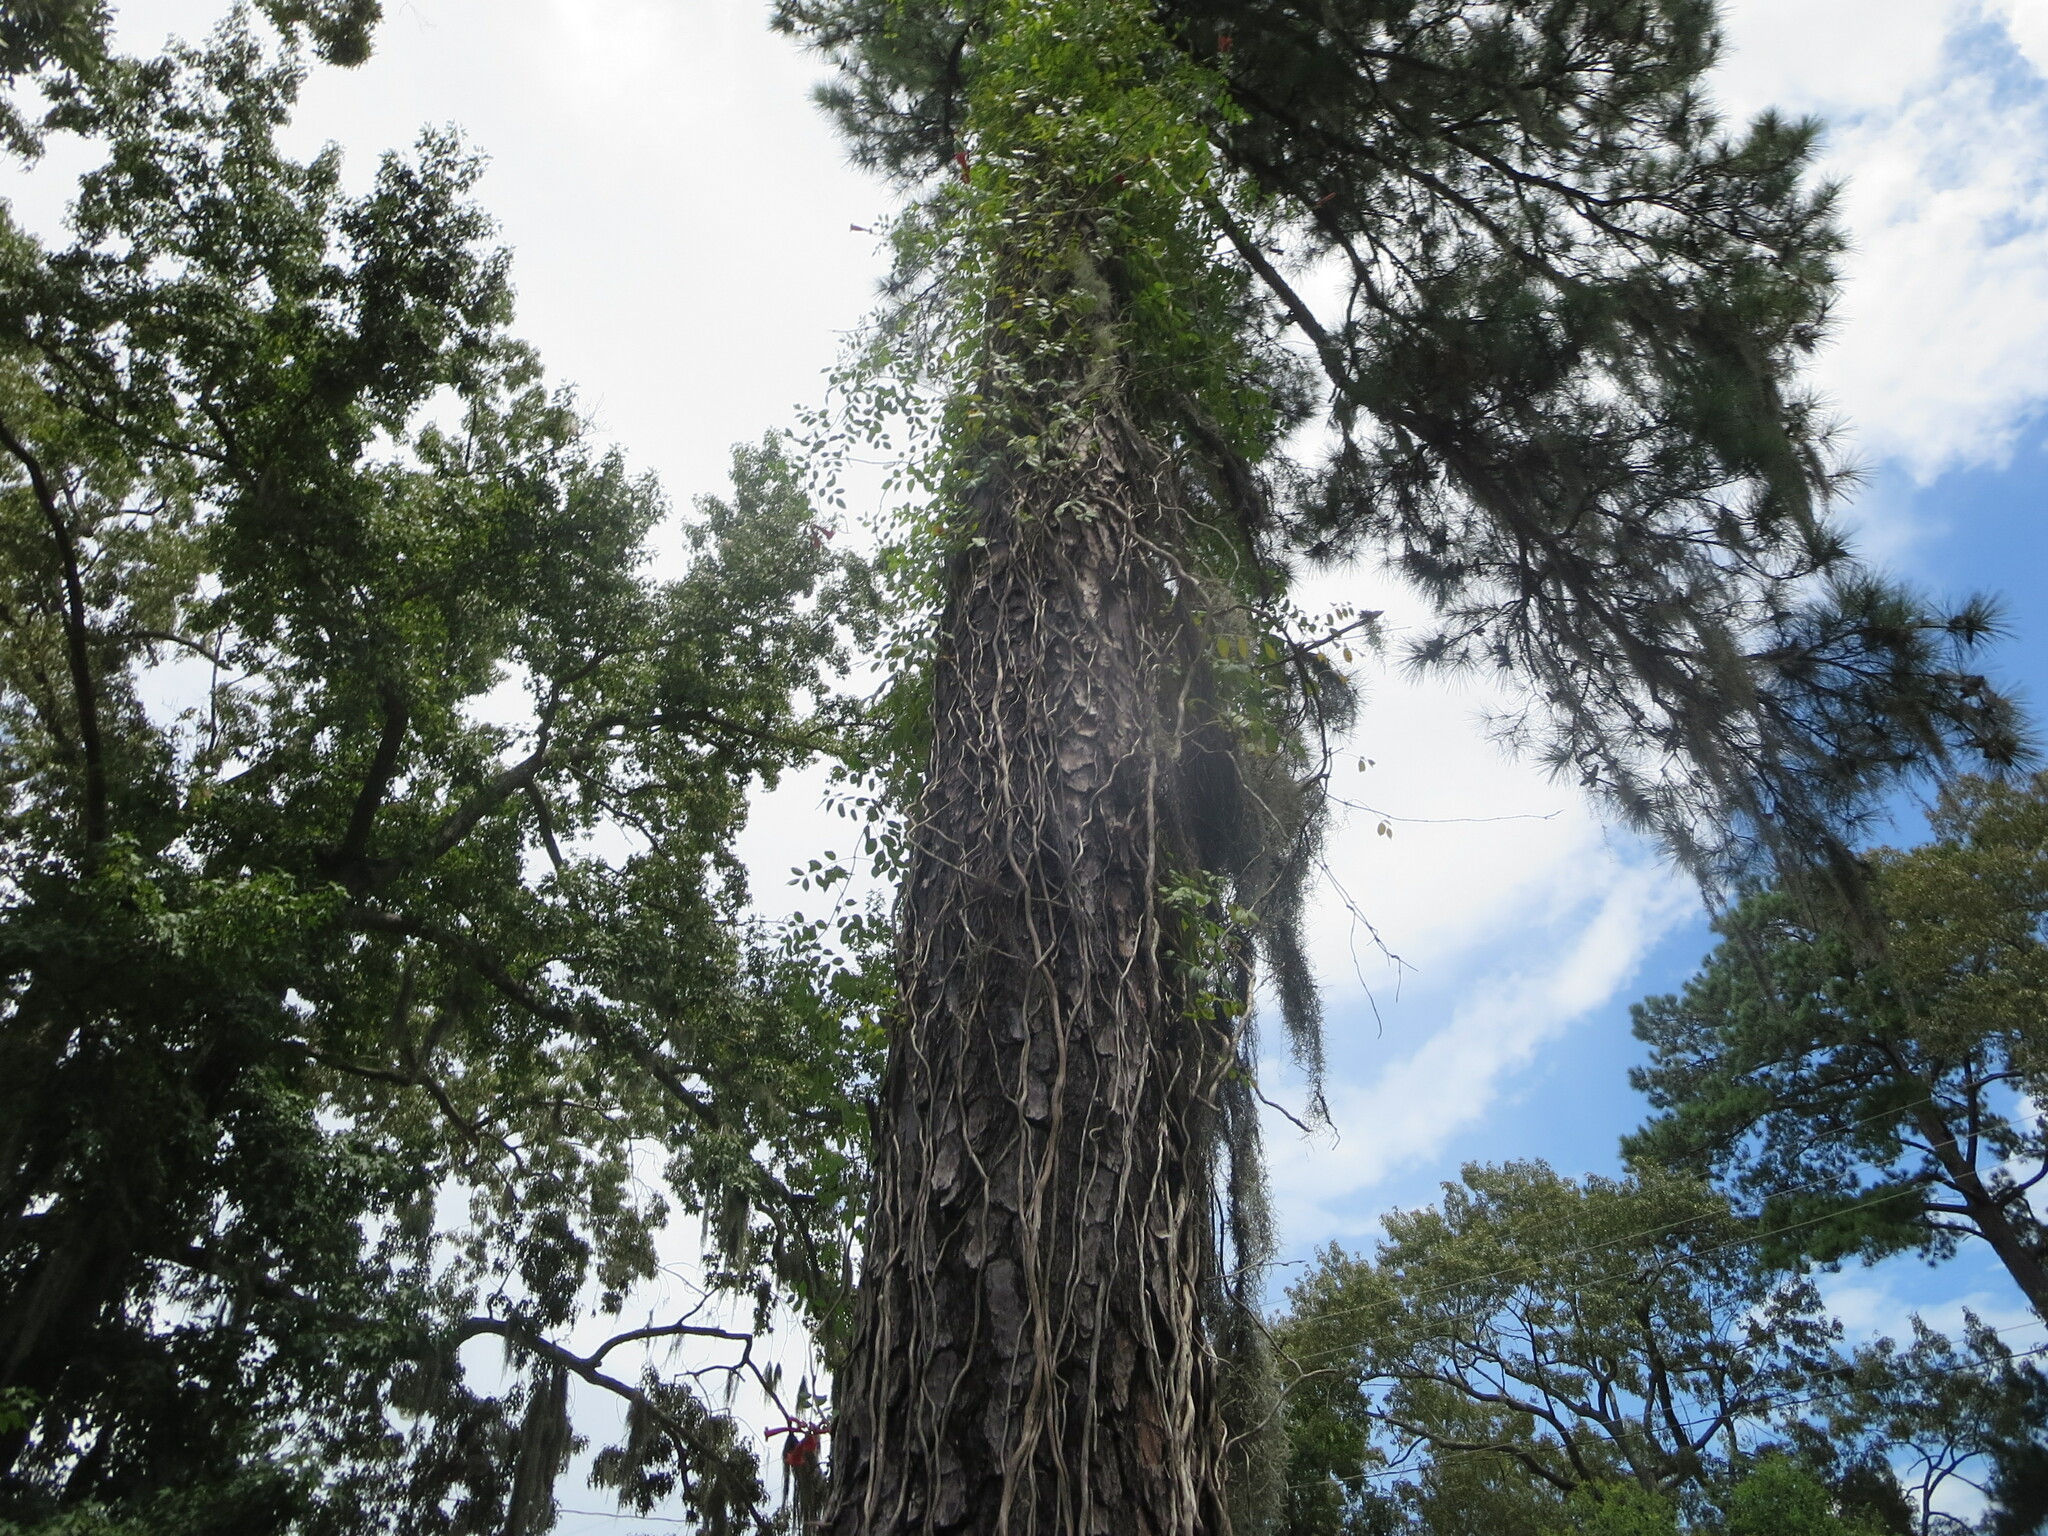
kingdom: Plantae
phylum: Tracheophyta
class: Magnoliopsida
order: Lamiales
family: Bignoniaceae
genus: Campsis
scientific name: Campsis radicans
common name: Trumpet-creeper
